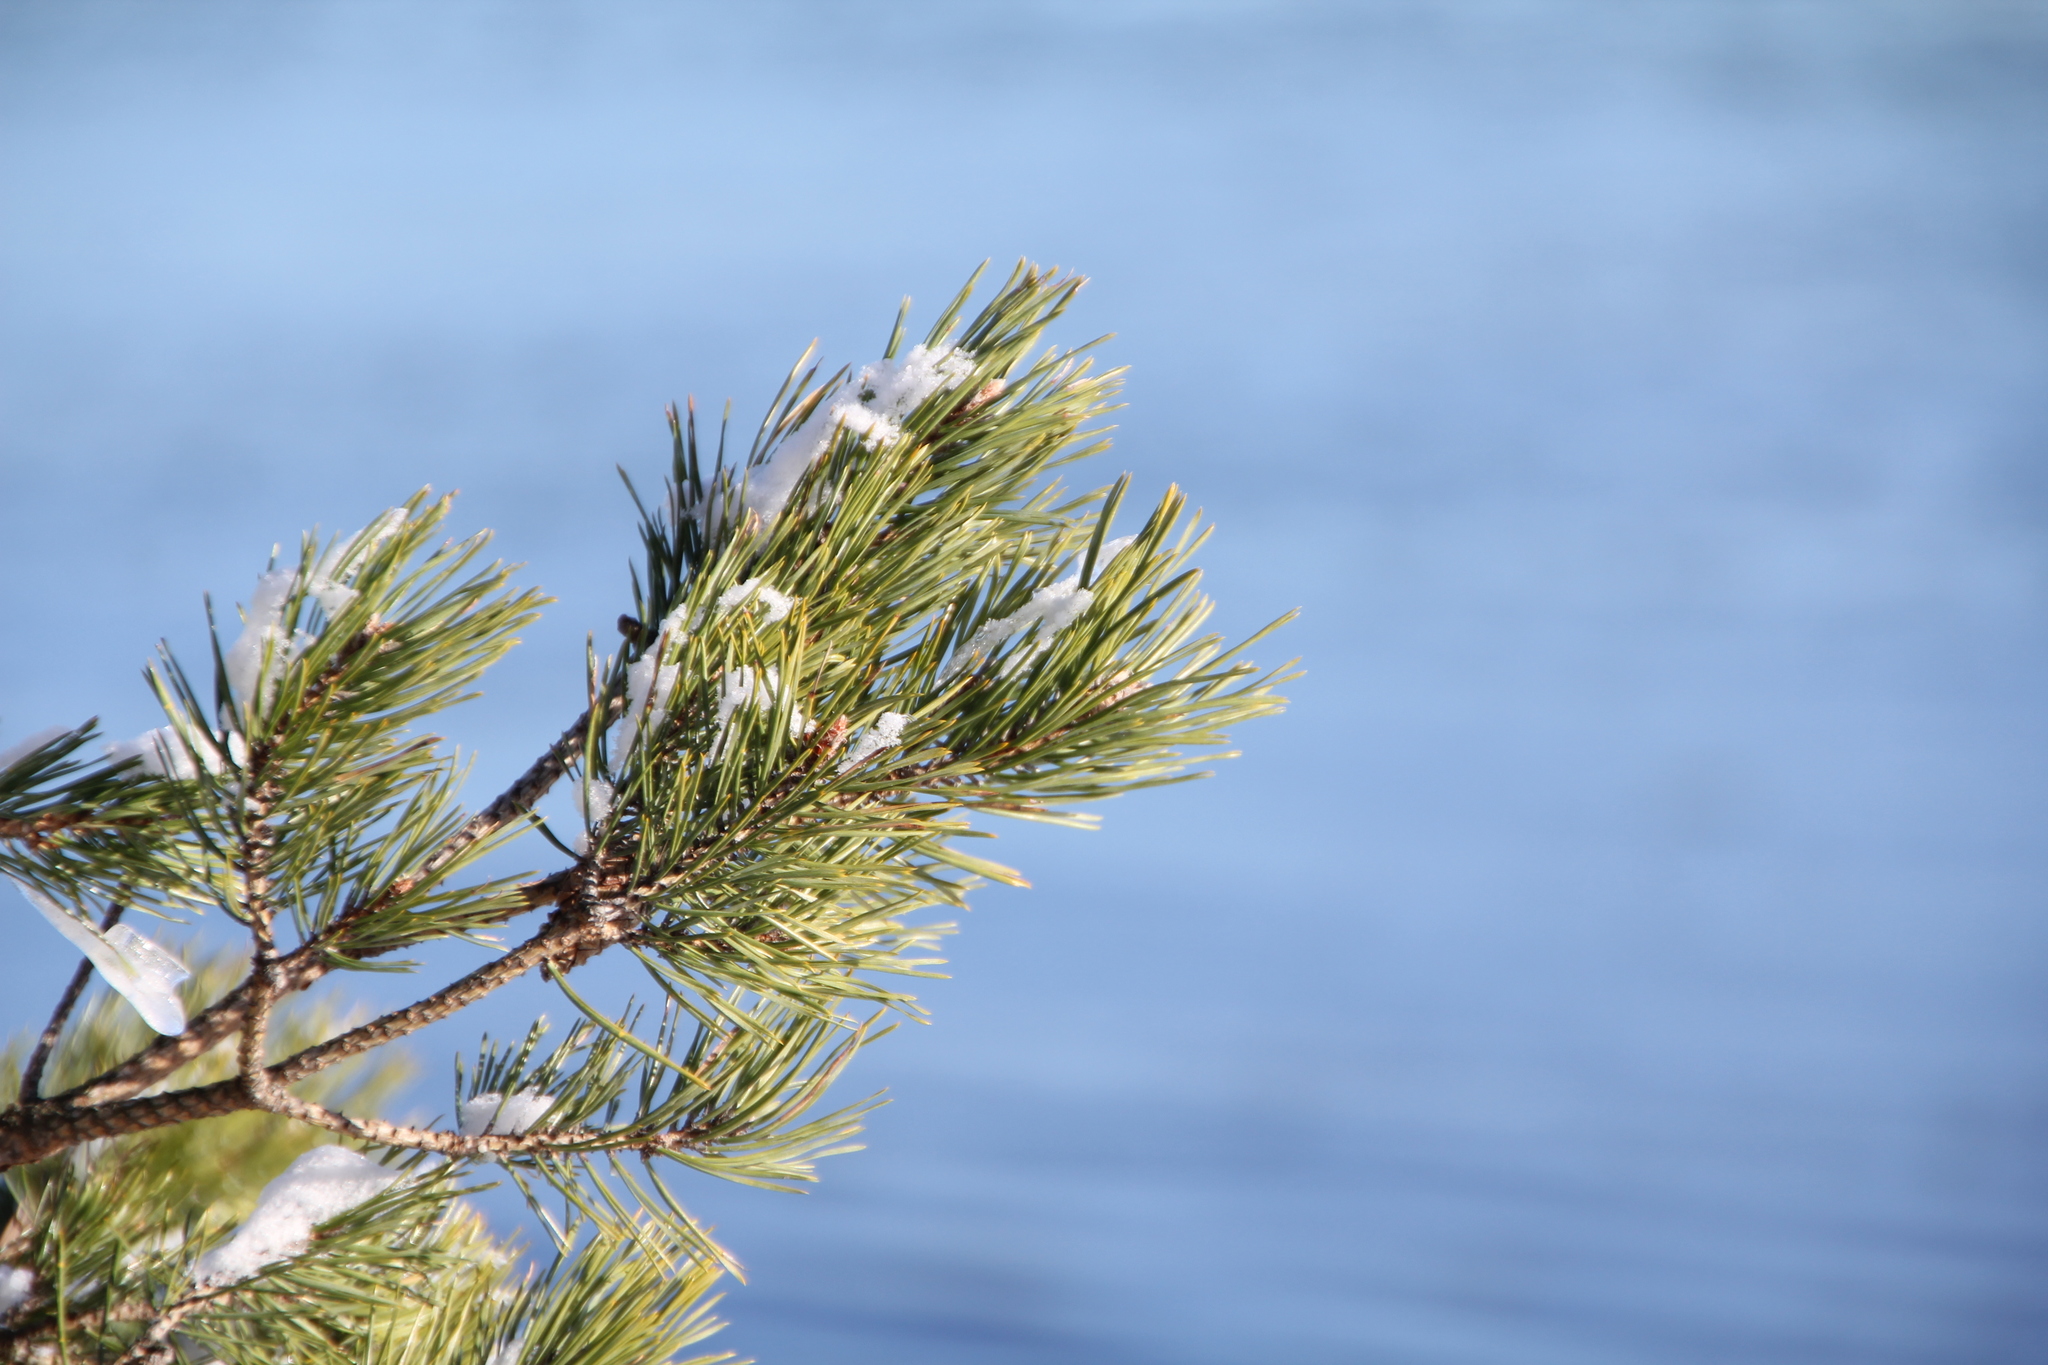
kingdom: Plantae
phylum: Tracheophyta
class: Pinopsida
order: Pinales
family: Pinaceae
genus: Pinus
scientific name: Pinus sylvestris
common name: Scots pine
